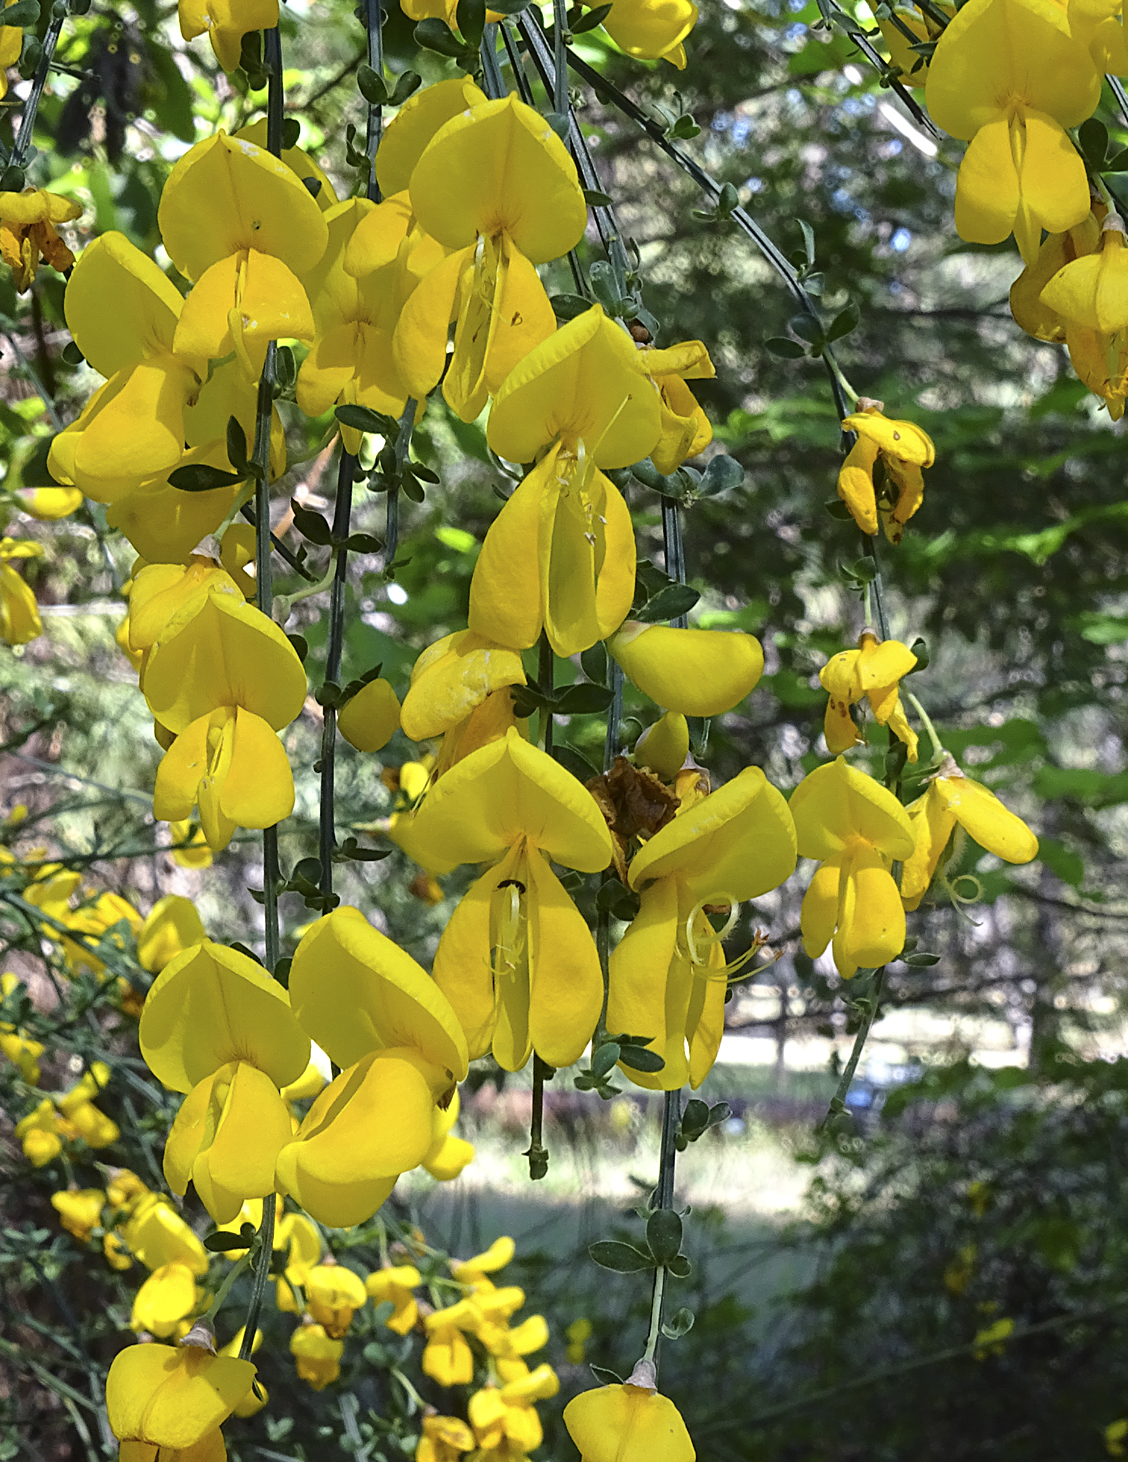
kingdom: Plantae
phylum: Tracheophyta
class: Magnoliopsida
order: Fabales
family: Fabaceae
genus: Cytisus
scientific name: Cytisus scoparius
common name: Scotch broom
